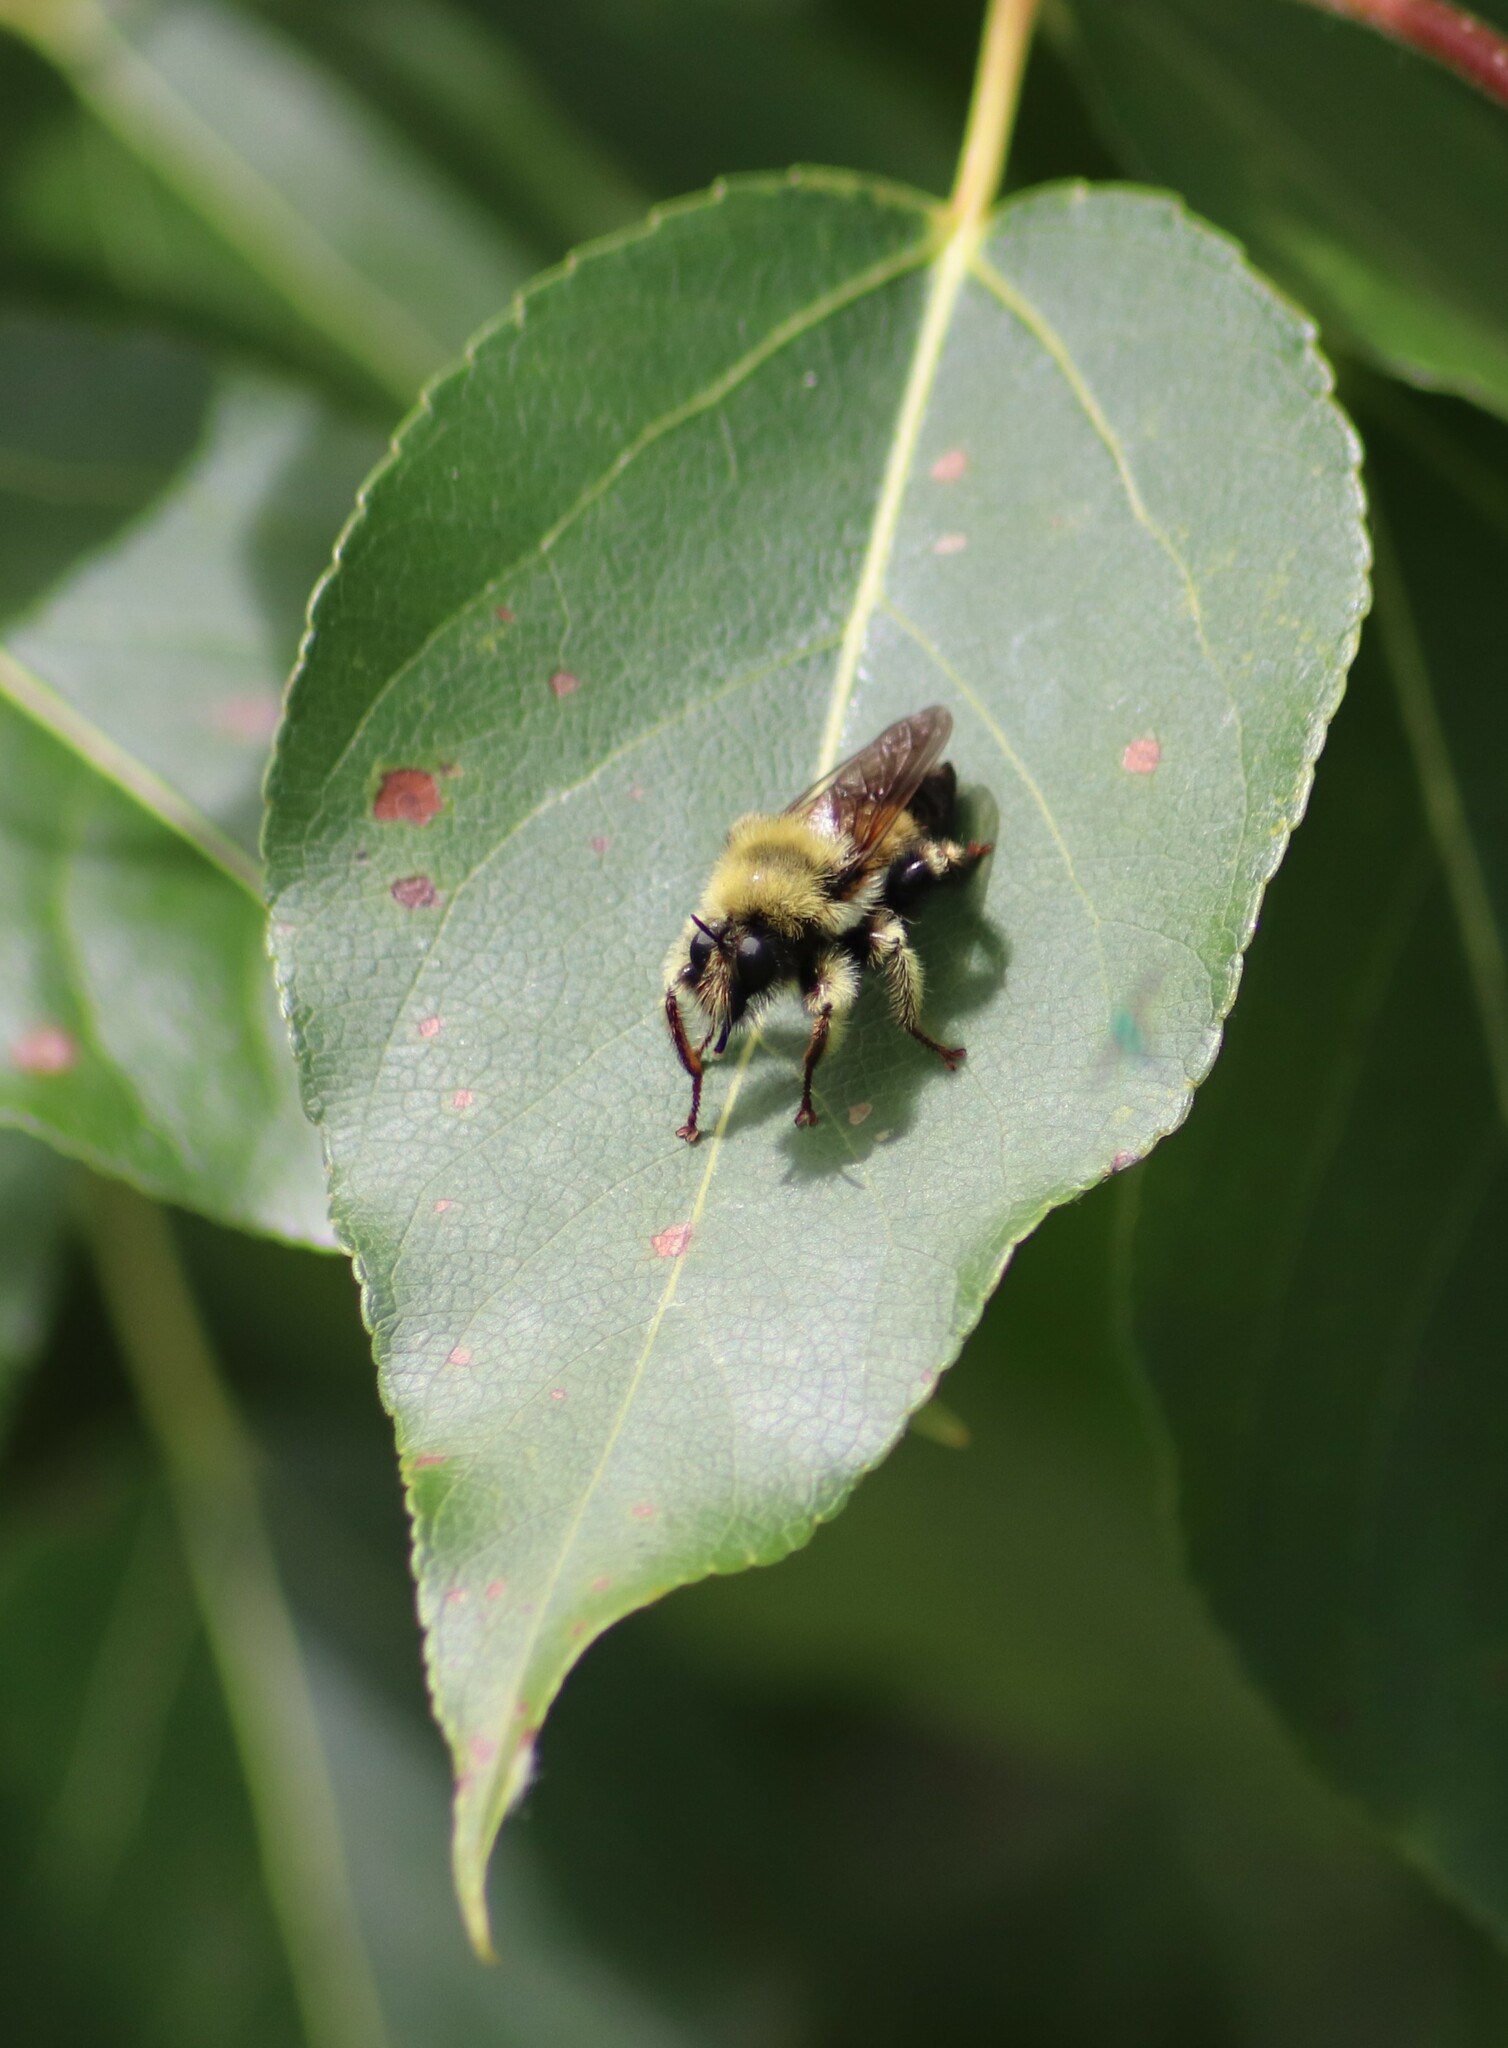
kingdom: Animalia
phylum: Arthropoda
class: Insecta
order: Diptera
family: Asilidae
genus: Laphria
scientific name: Laphria sacrator
